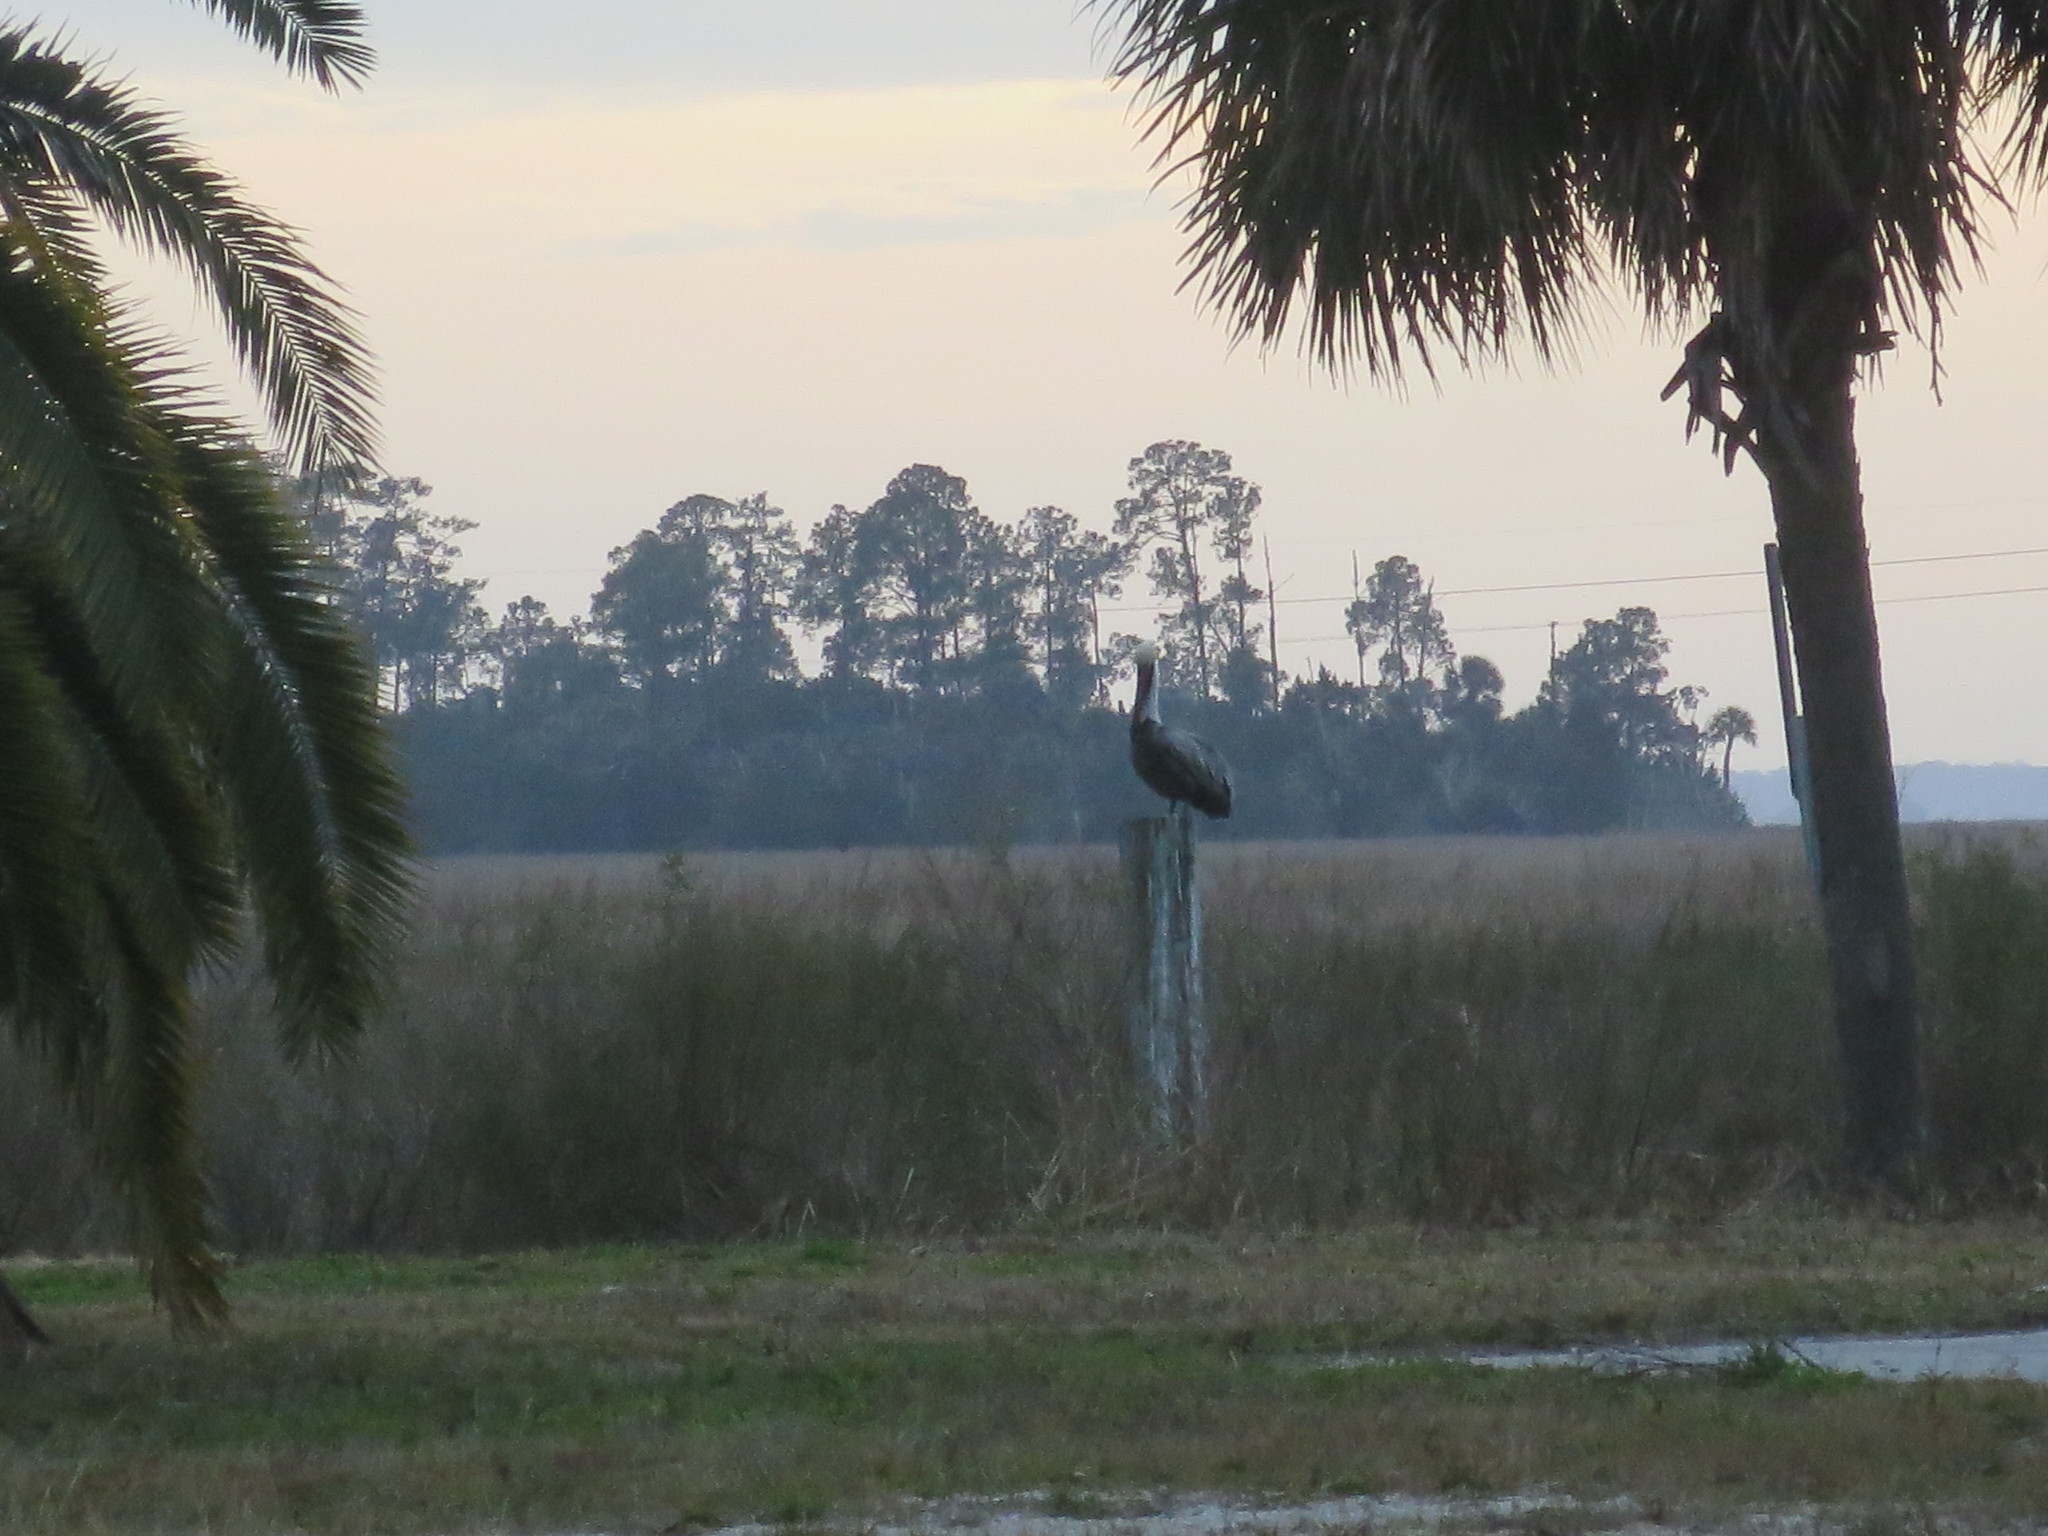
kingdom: Animalia
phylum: Chordata
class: Aves
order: Pelecaniformes
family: Pelecanidae
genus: Pelecanus
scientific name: Pelecanus occidentalis
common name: Brown pelican
